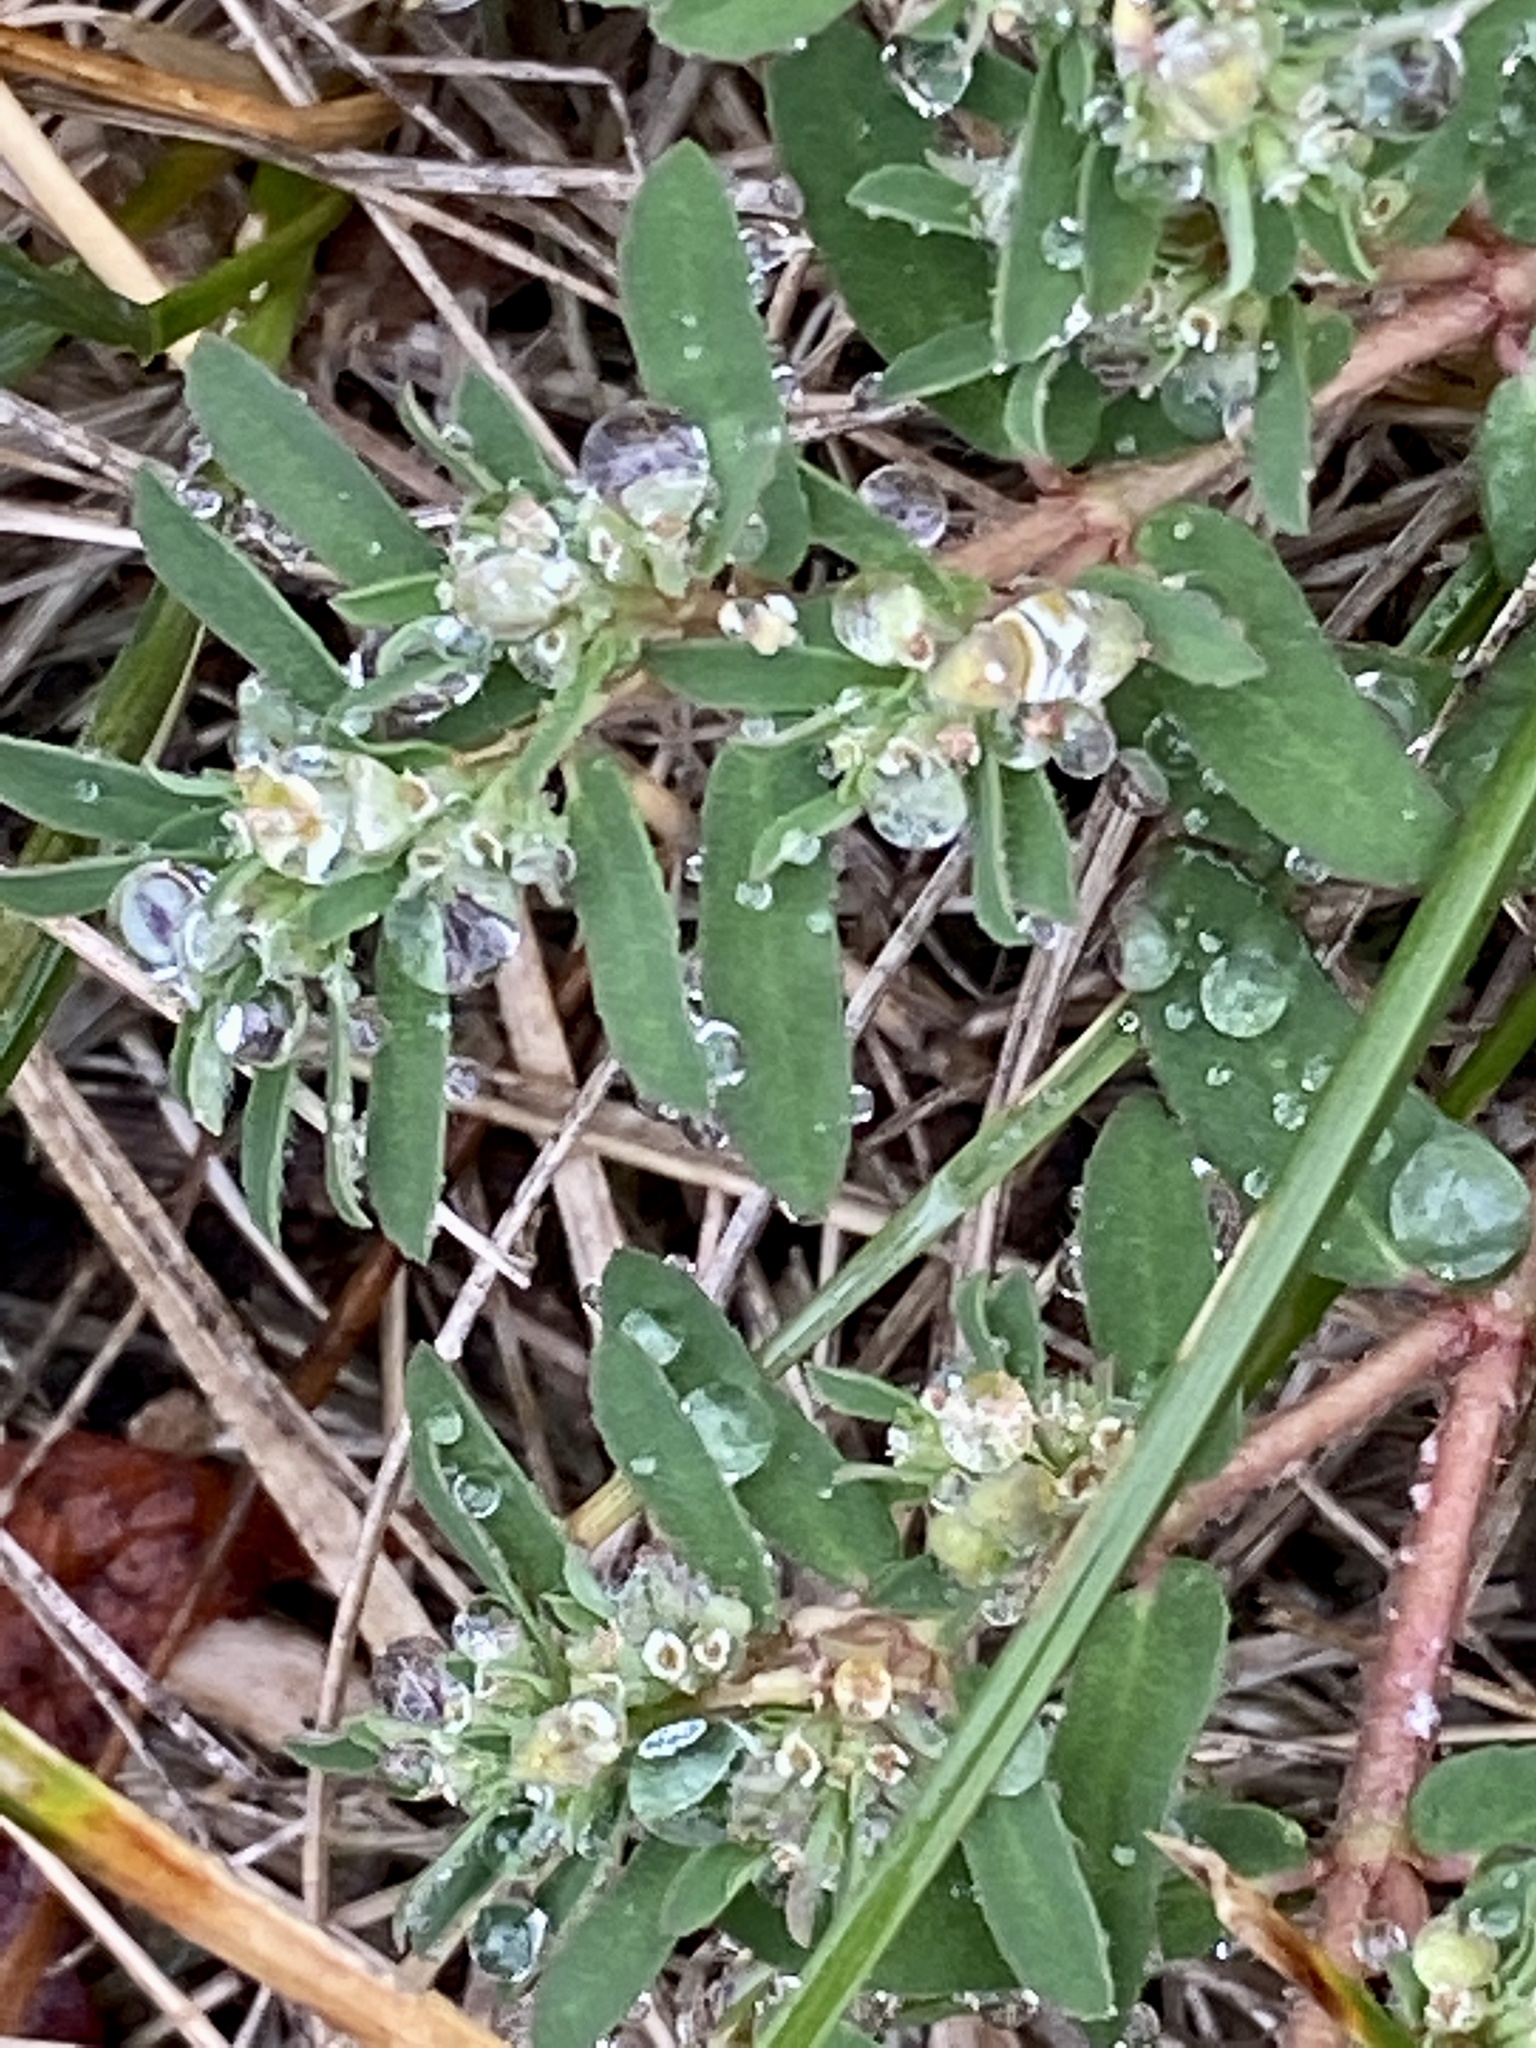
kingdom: Plantae
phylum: Tracheophyta
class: Magnoliopsida
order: Malpighiales
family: Euphorbiaceae
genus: Euphorbia
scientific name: Euphorbia maculata
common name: Spotted spurge
